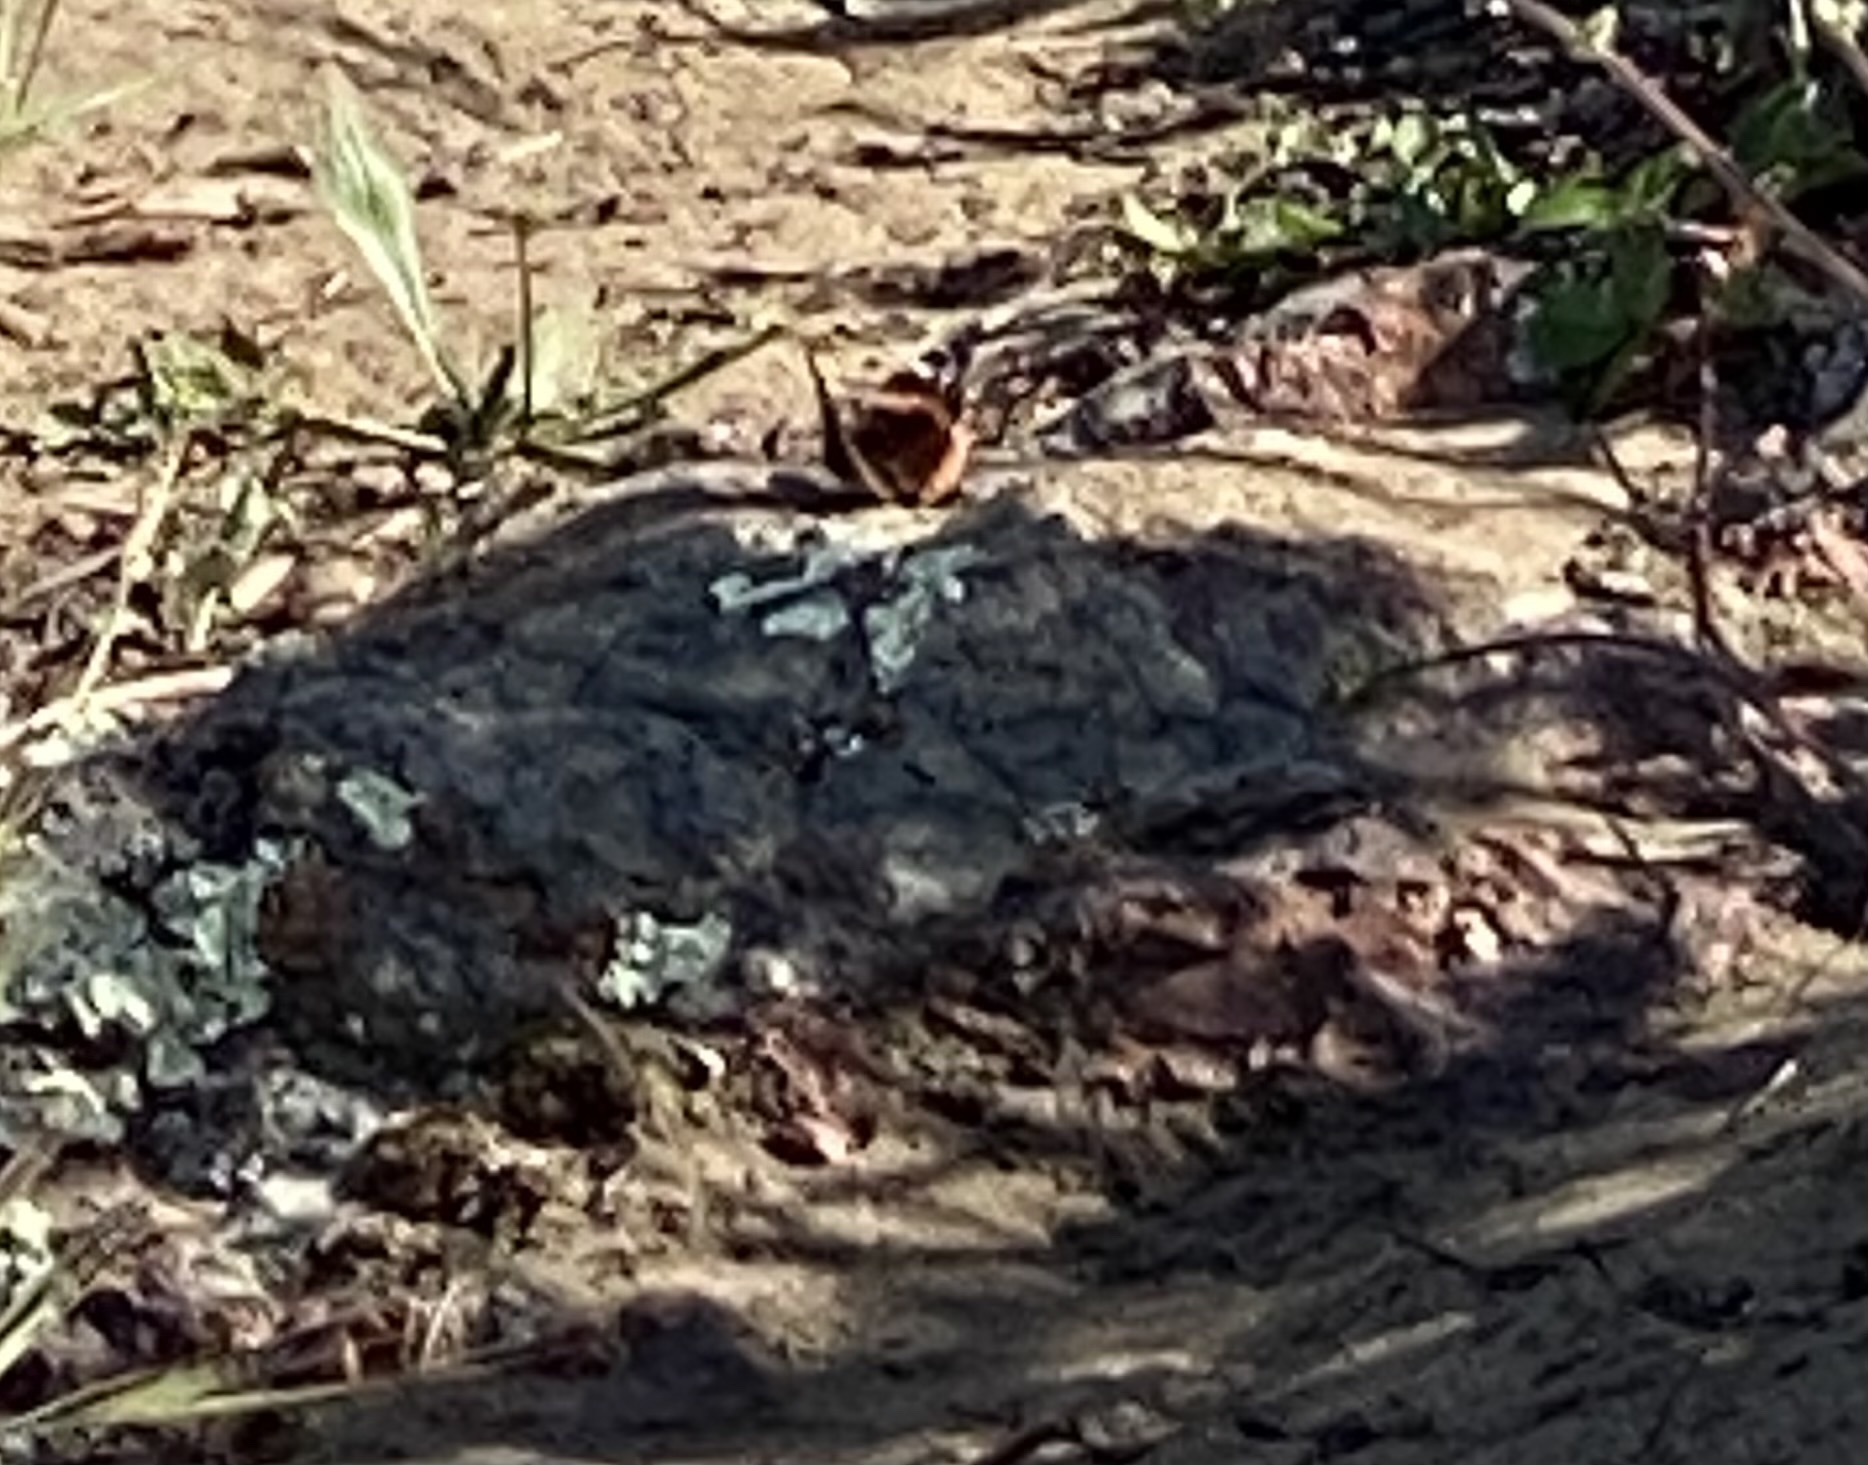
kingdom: Animalia
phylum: Arthropoda
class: Insecta
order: Lepidoptera
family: Nymphalidae
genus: Vanessa
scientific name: Vanessa atalanta
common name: Red admiral
